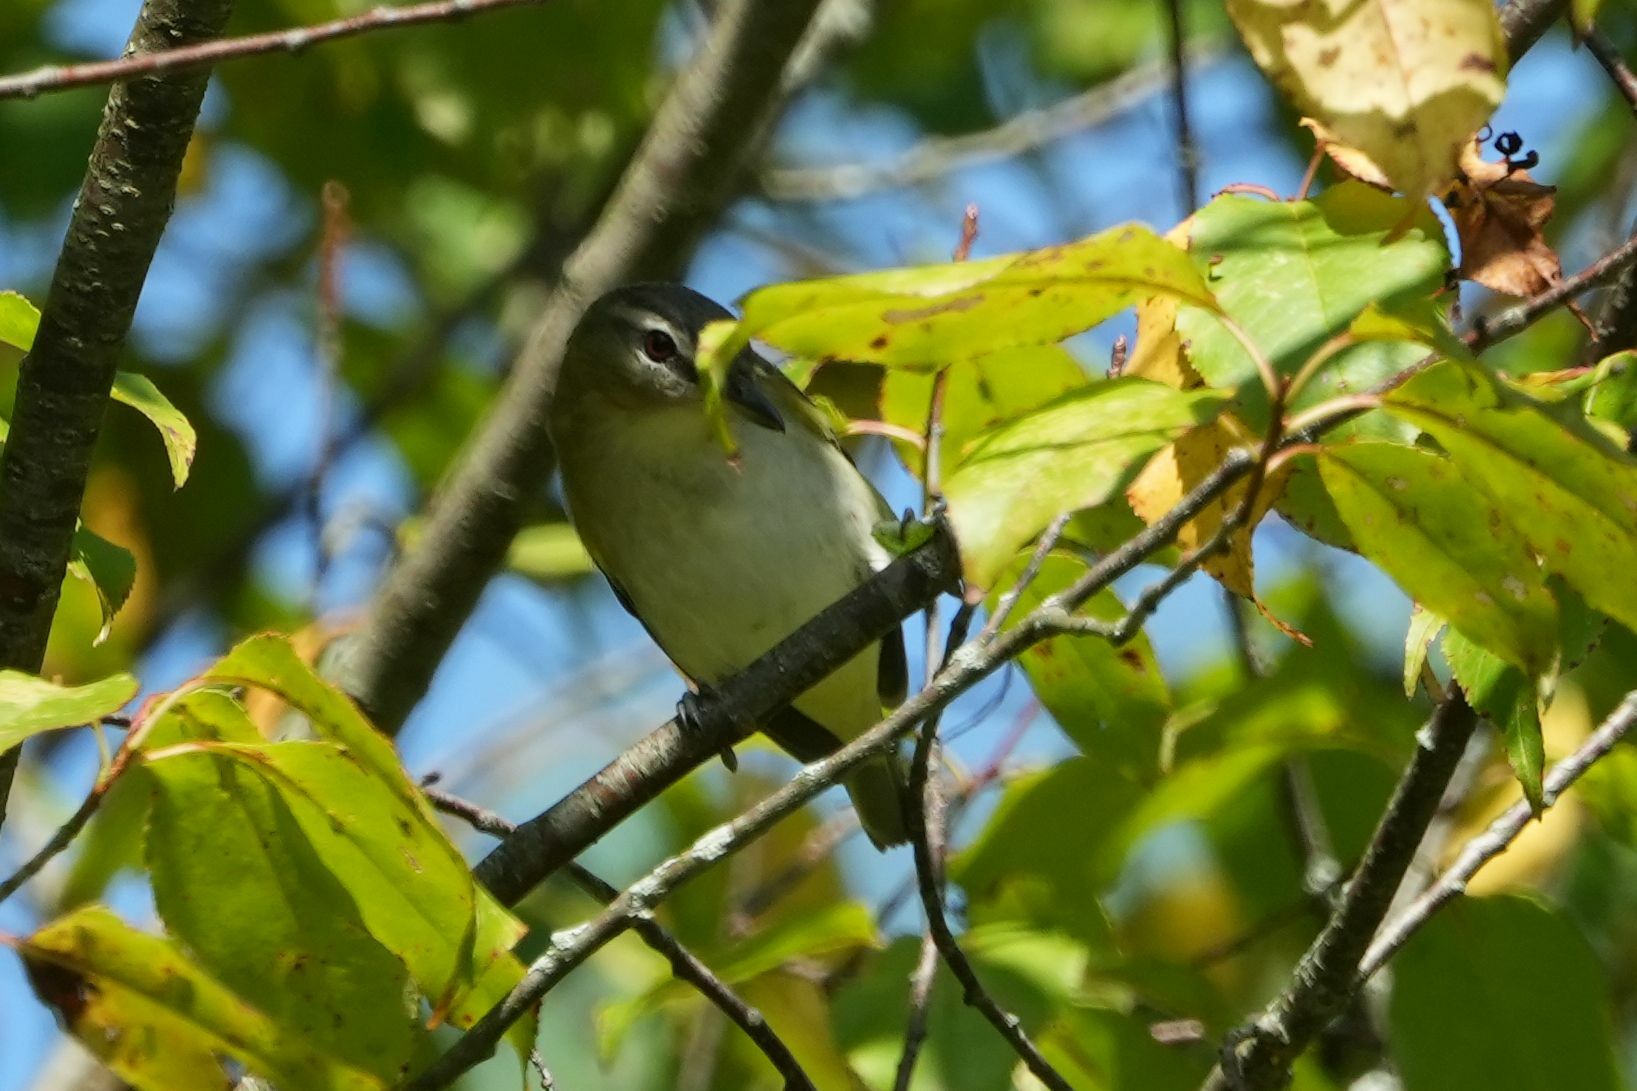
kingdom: Animalia
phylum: Chordata
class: Aves
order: Passeriformes
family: Vireonidae
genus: Vireo
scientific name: Vireo olivaceus
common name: Red-eyed vireo
